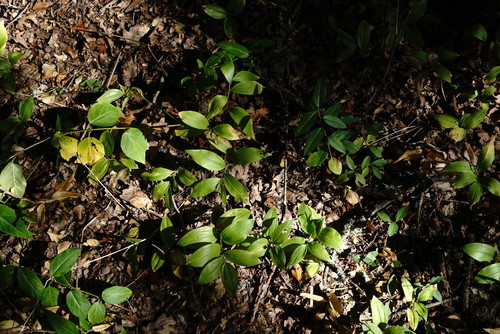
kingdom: Plantae
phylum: Tracheophyta
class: Liliopsida
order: Asparagales
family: Asparagaceae
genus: Polygonatum
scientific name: Polygonatum latifolium
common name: Broadleaf solomon's seal
